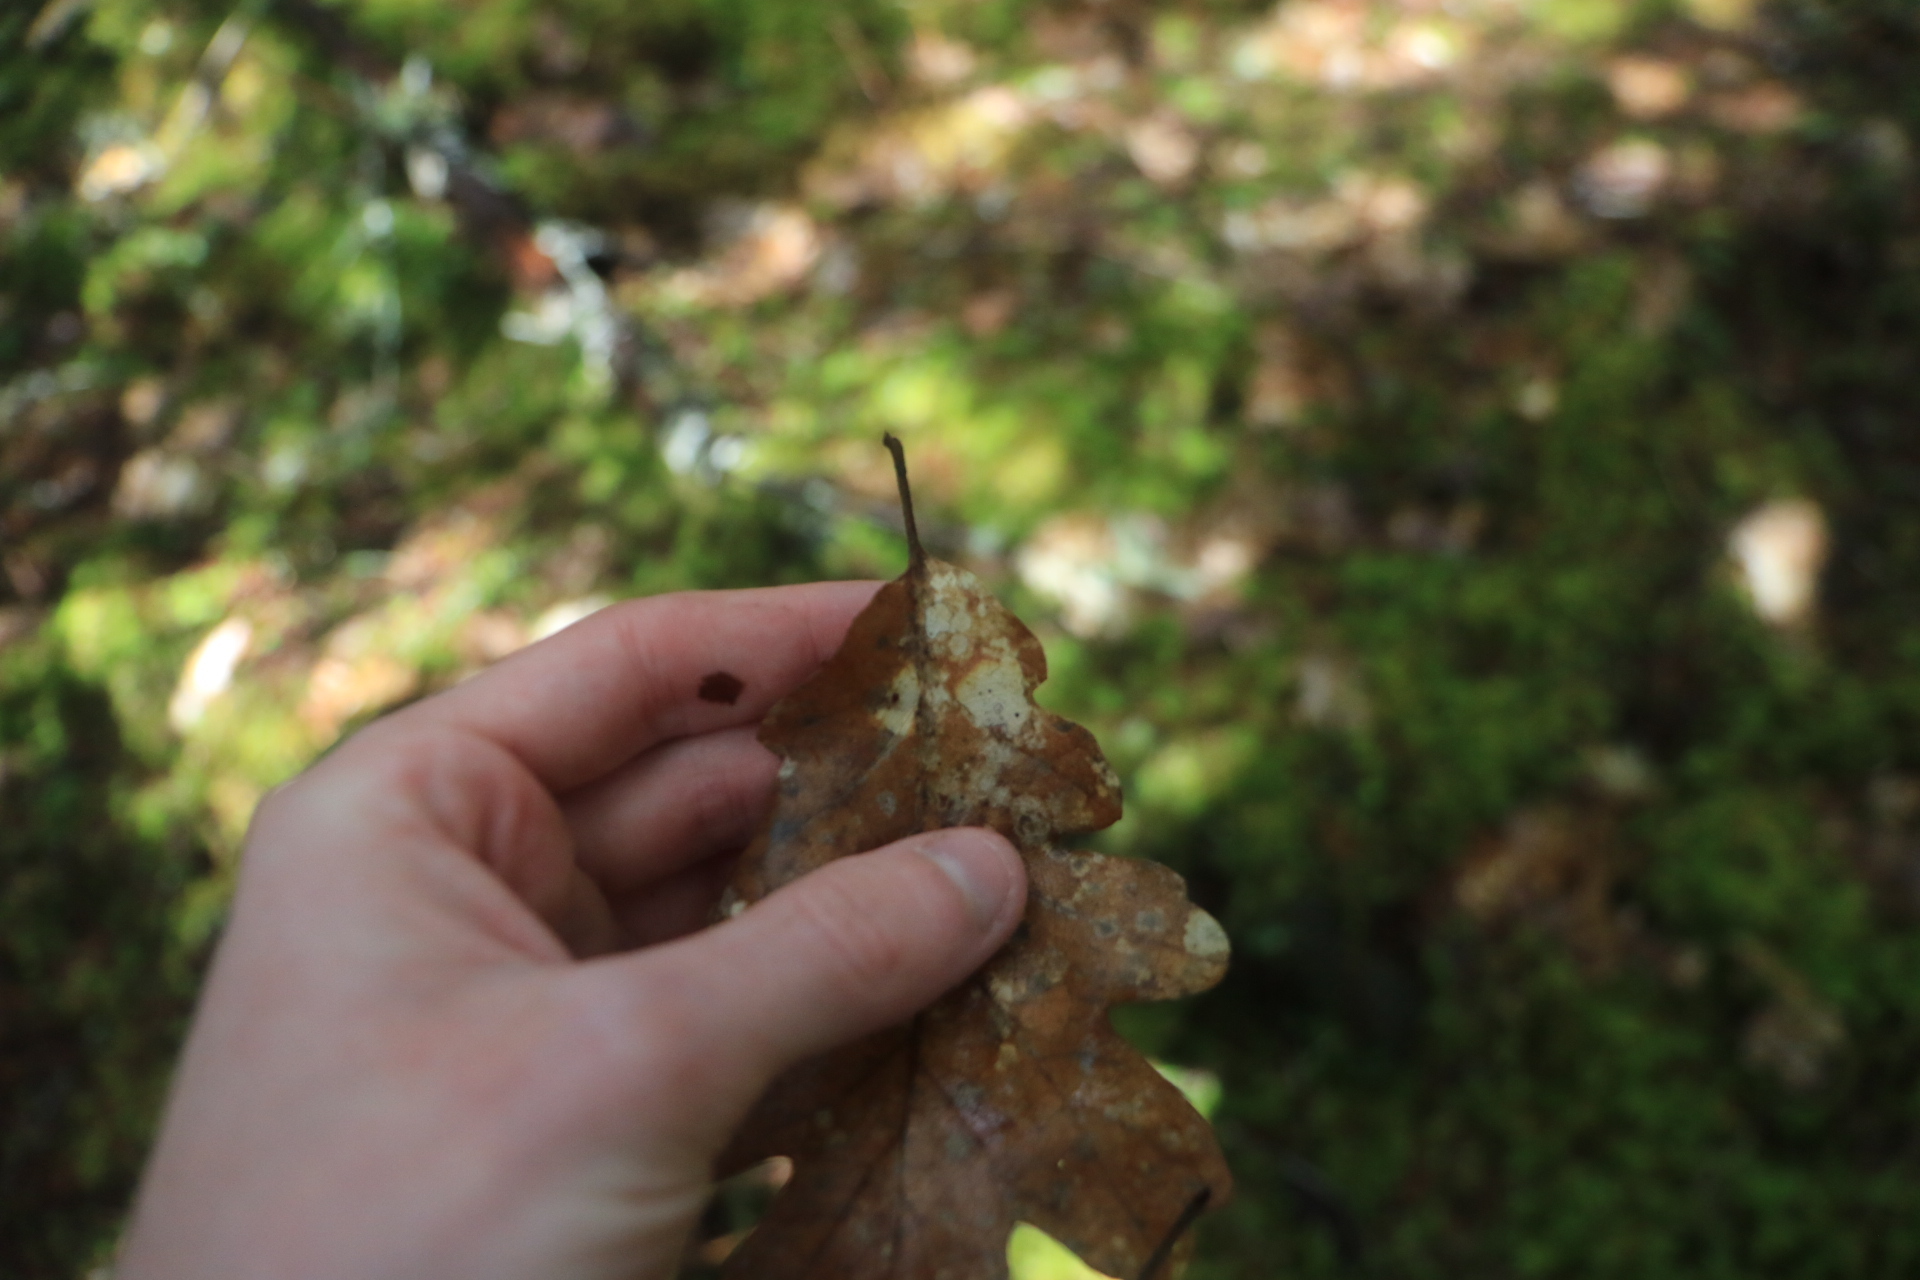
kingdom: Plantae
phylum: Tracheophyta
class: Magnoliopsida
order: Fagales
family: Fagaceae
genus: Quercus
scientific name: Quercus garryana
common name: Garry oak
